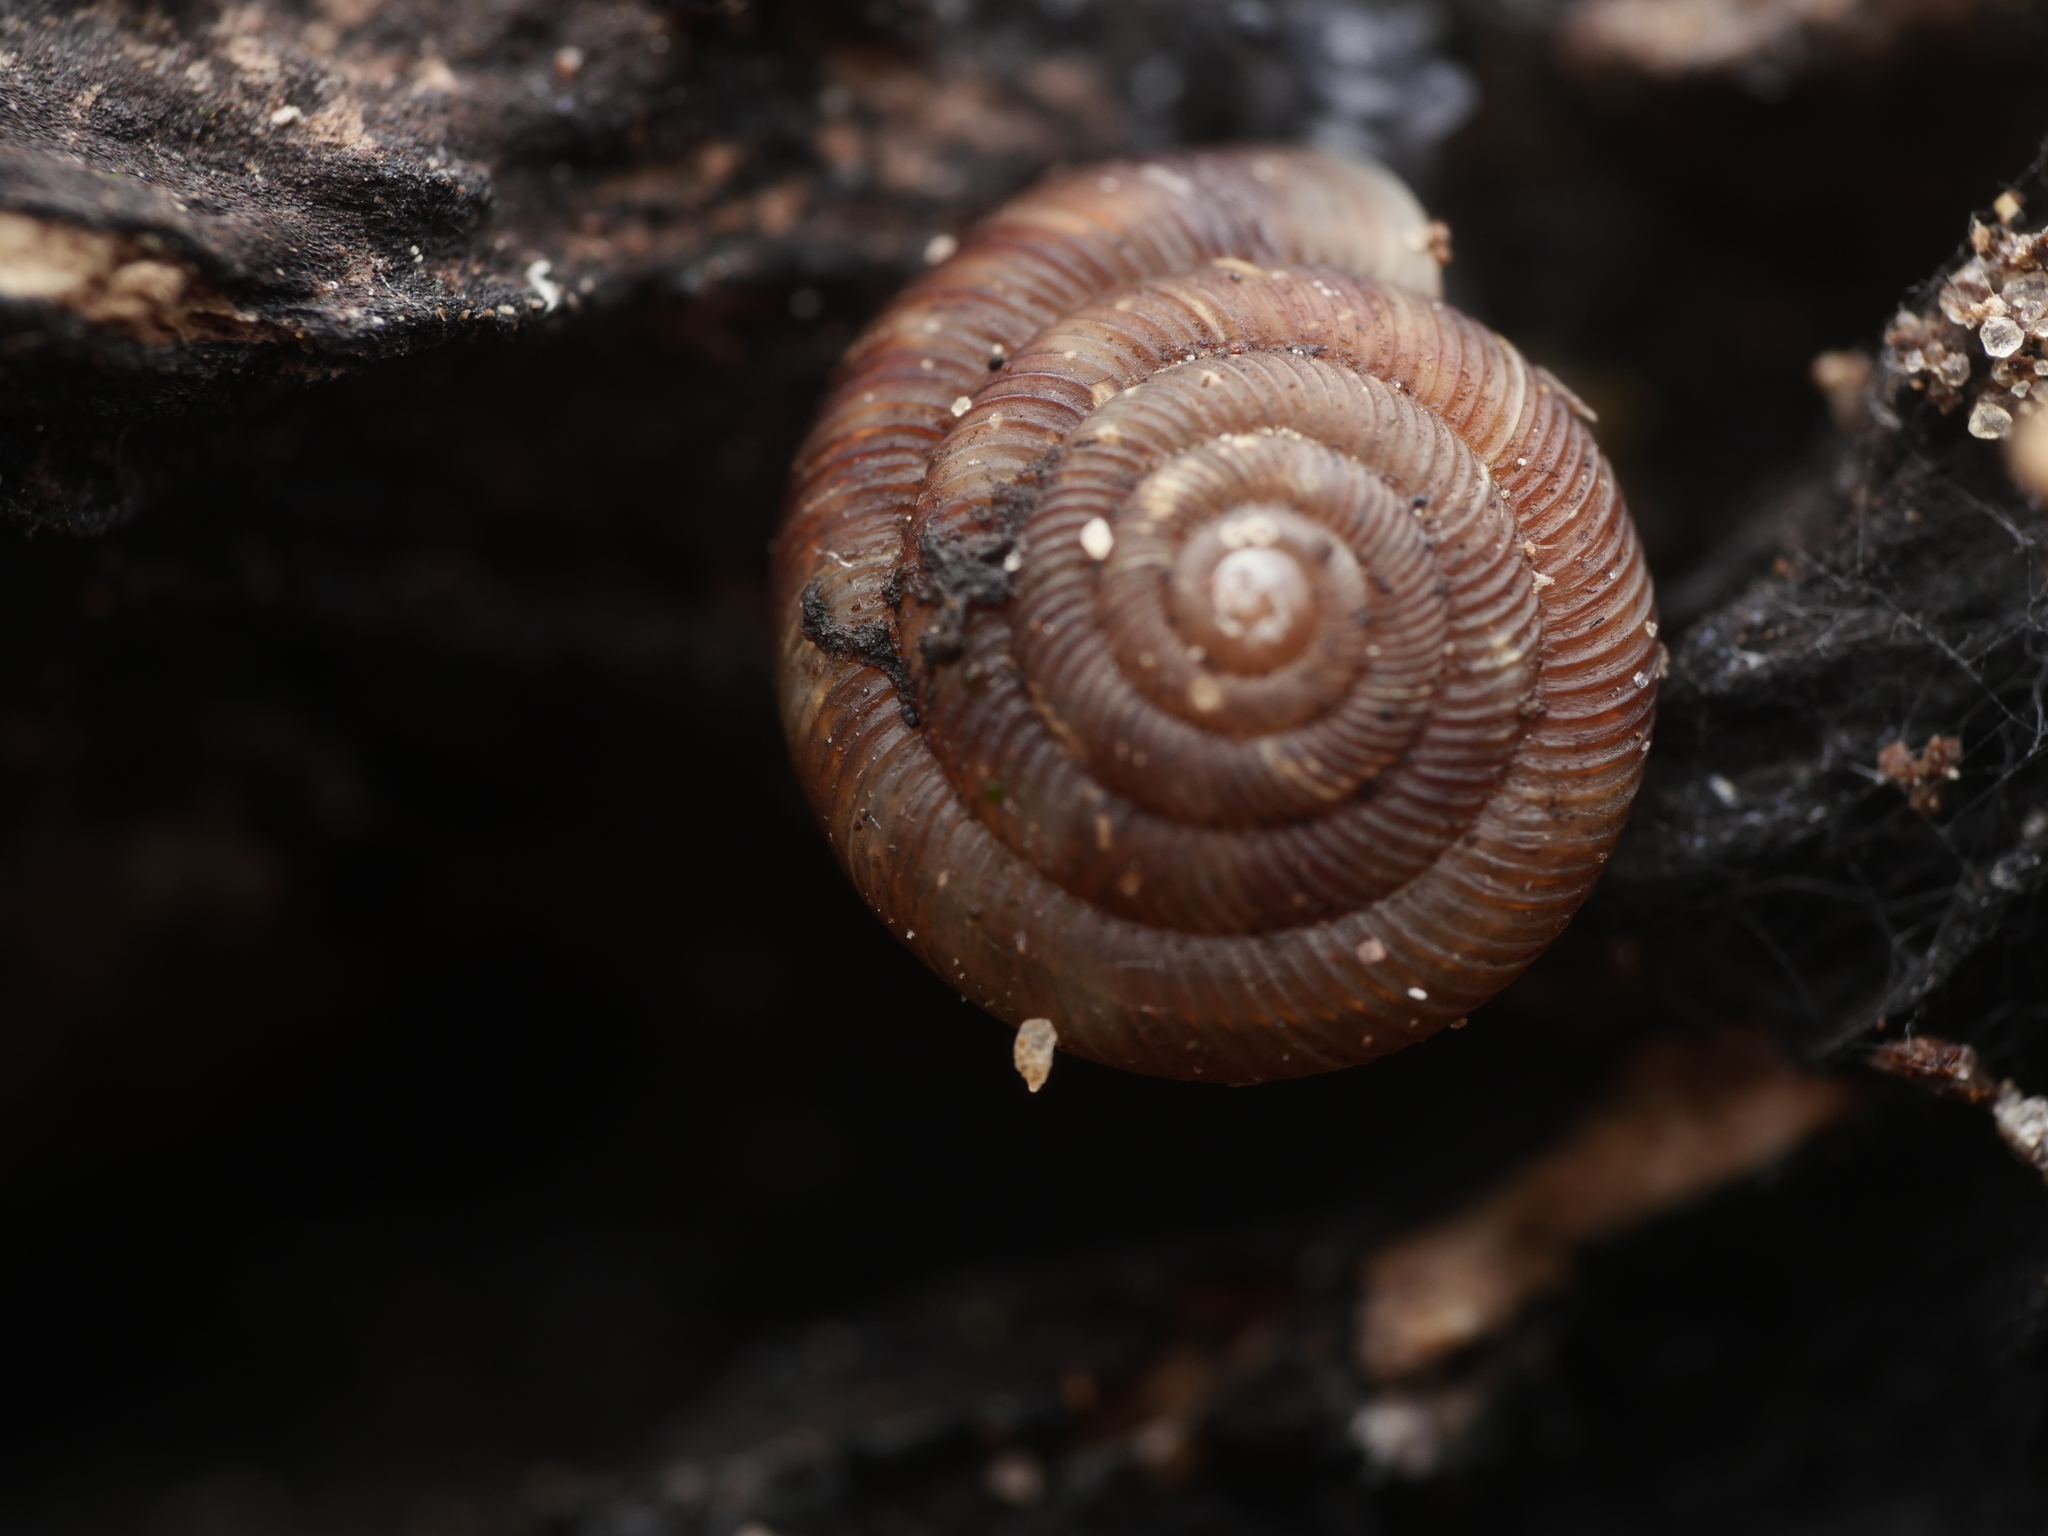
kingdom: Animalia
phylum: Mollusca
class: Gastropoda
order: Stylommatophora
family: Discidae
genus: Discus
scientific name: Discus rotundatus
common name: Rounded snail
